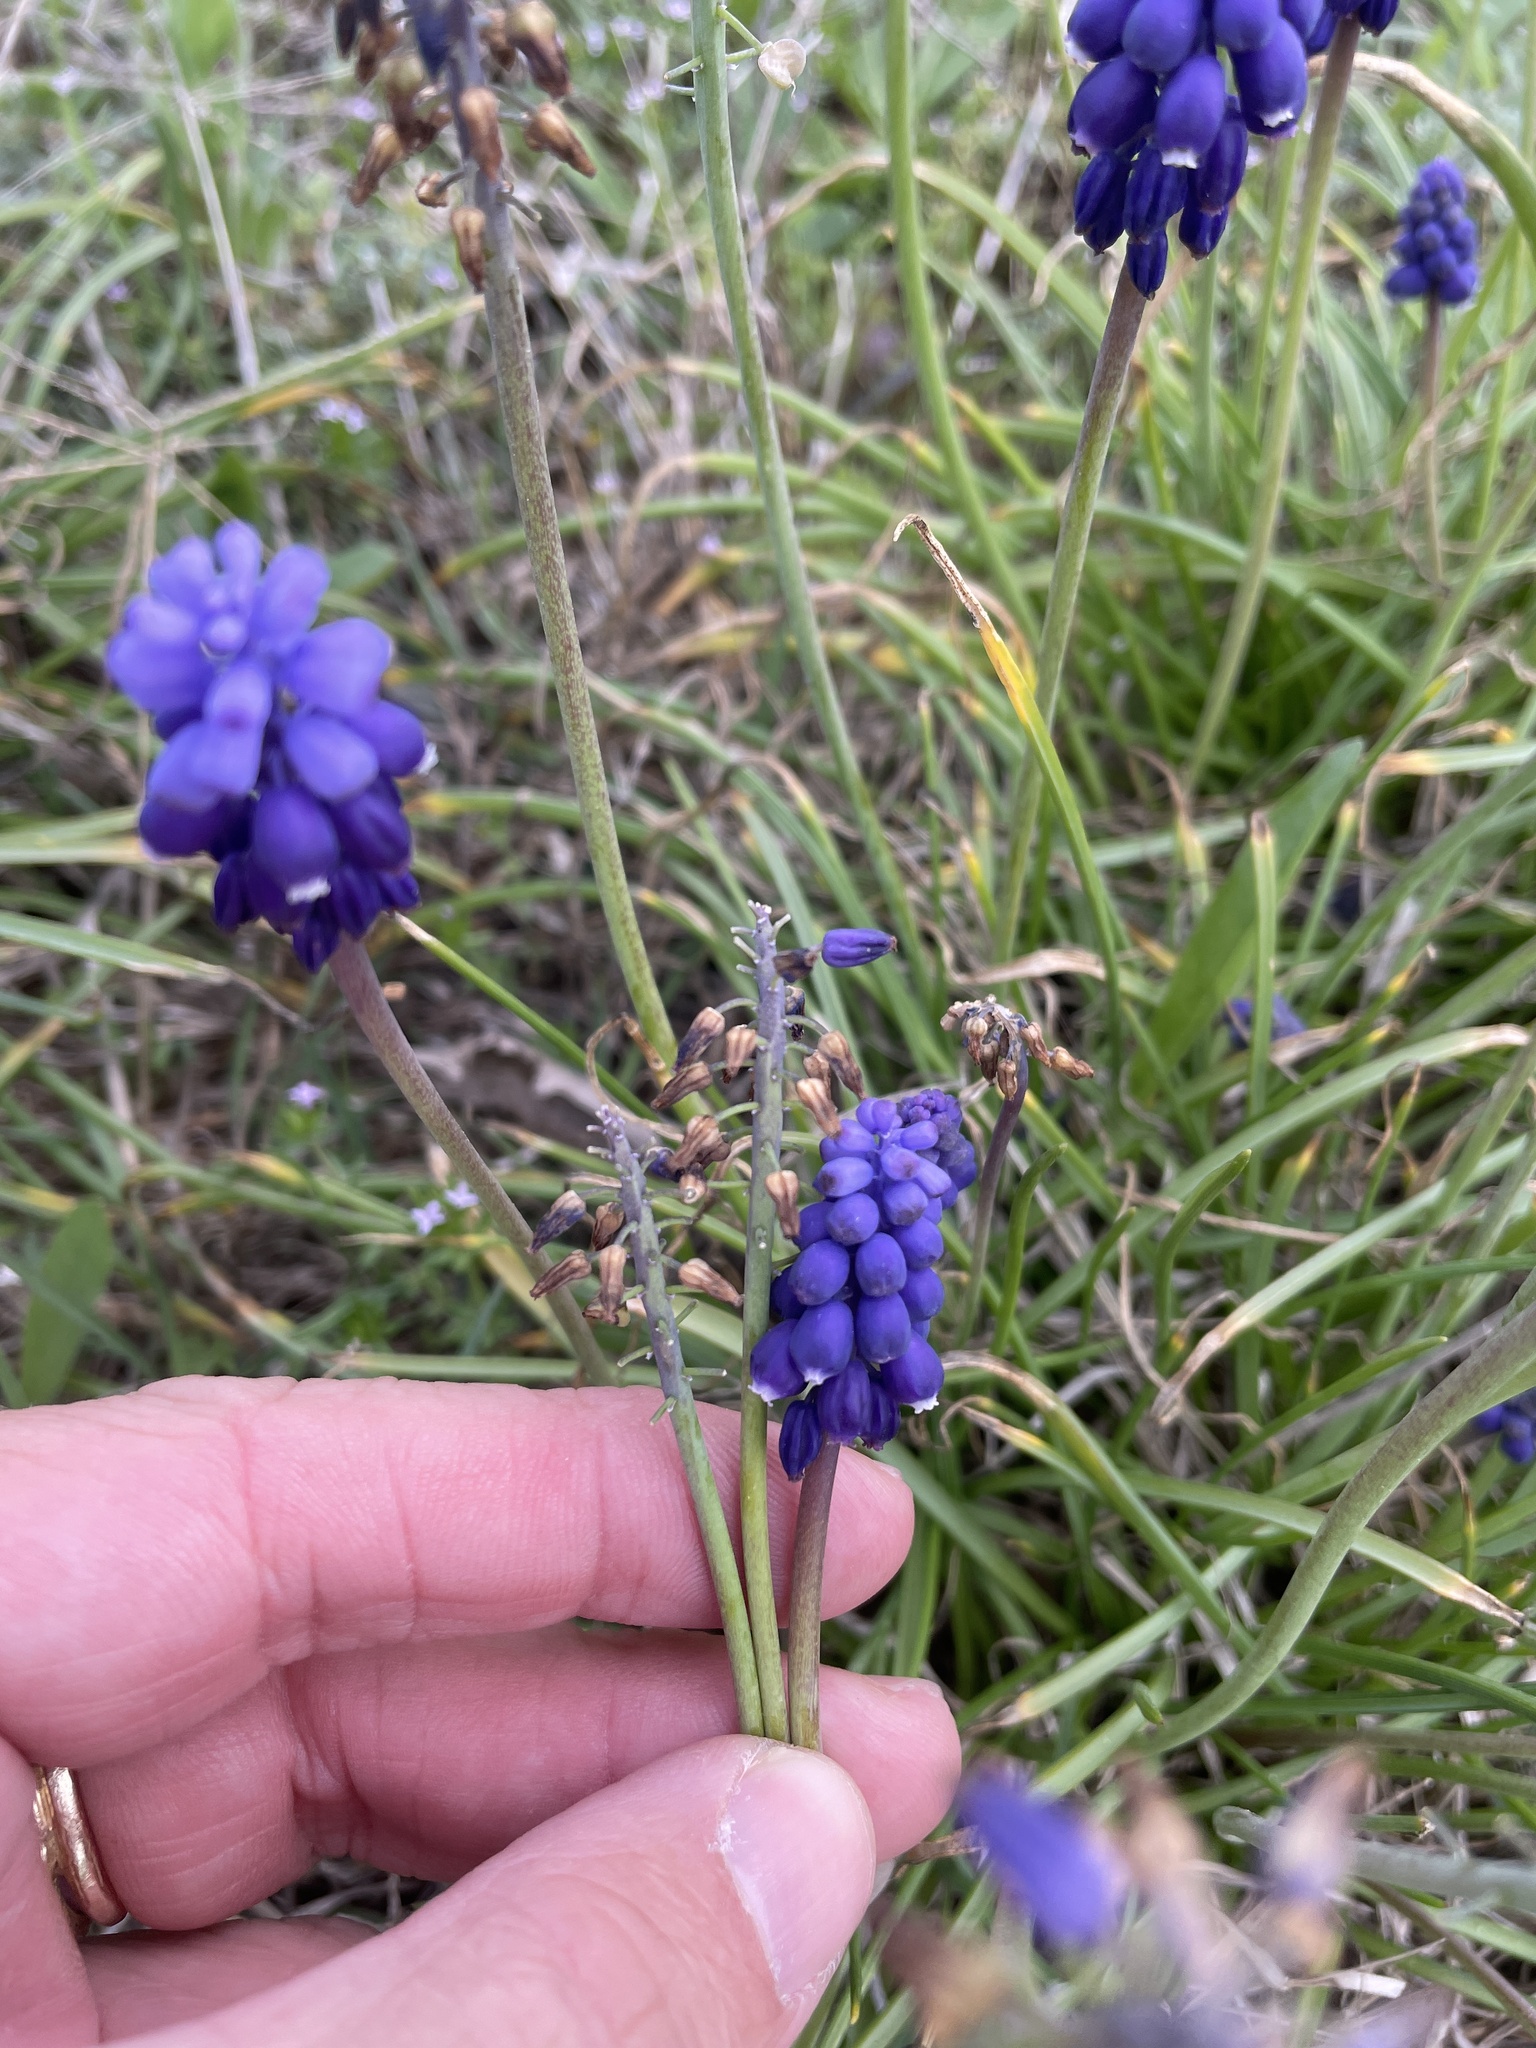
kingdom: Plantae
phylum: Tracheophyta
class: Liliopsida
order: Asparagales
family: Asparagaceae
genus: Muscari
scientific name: Muscari neglectum
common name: Grape-hyacinth
